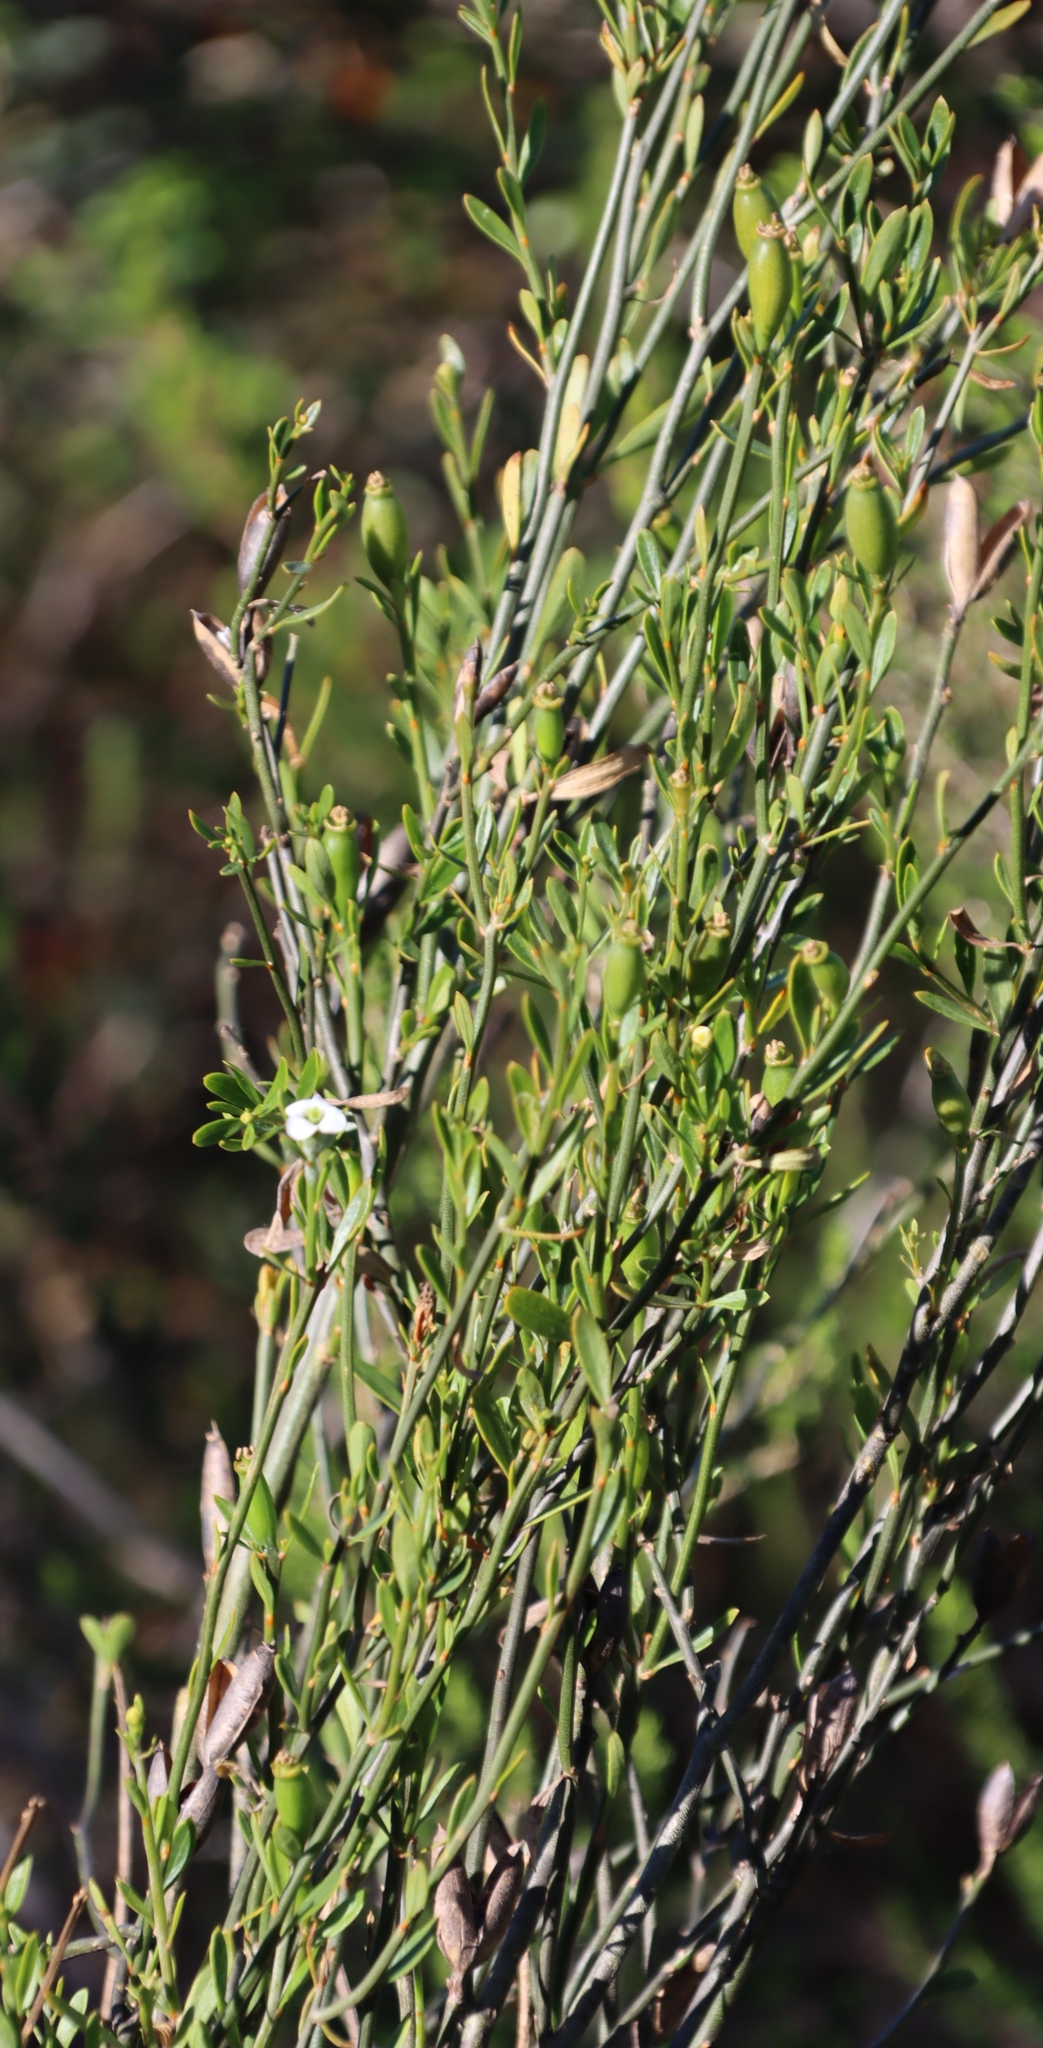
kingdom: Plantae
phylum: Tracheophyta
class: Magnoliopsida
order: Solanales
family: Montiniaceae
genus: Montinia
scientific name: Montinia caryophyllacea
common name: Wild clove-bush
